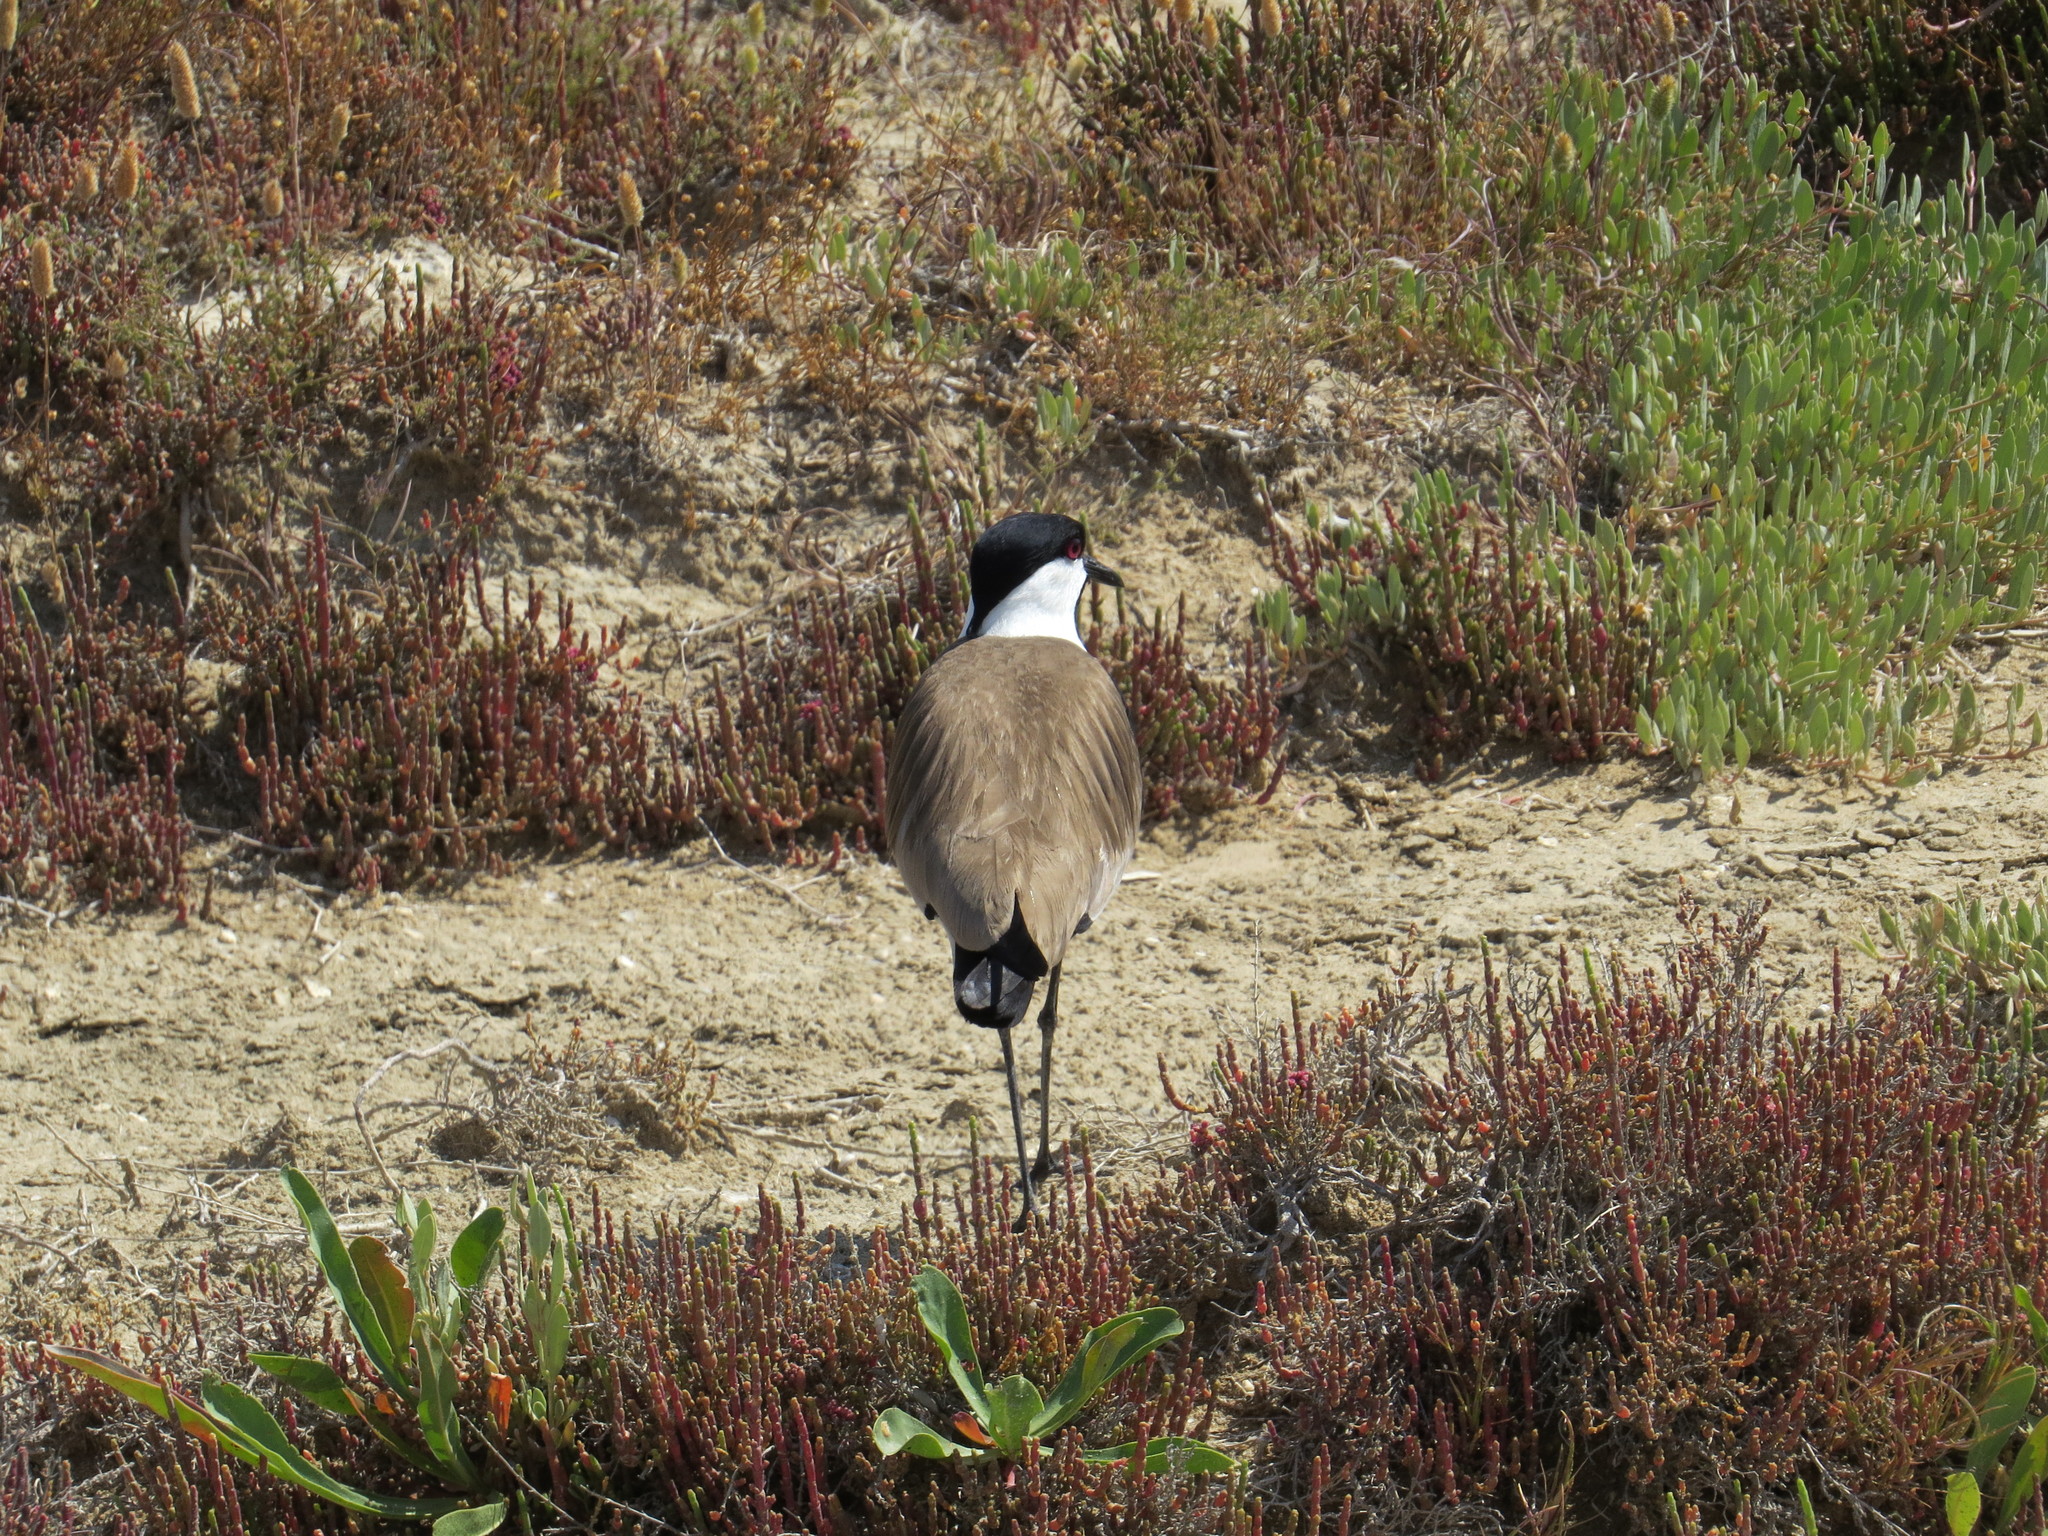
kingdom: Animalia
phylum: Chordata
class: Aves
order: Charadriiformes
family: Charadriidae
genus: Vanellus
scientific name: Vanellus spinosus
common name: Spur-winged lapwing
